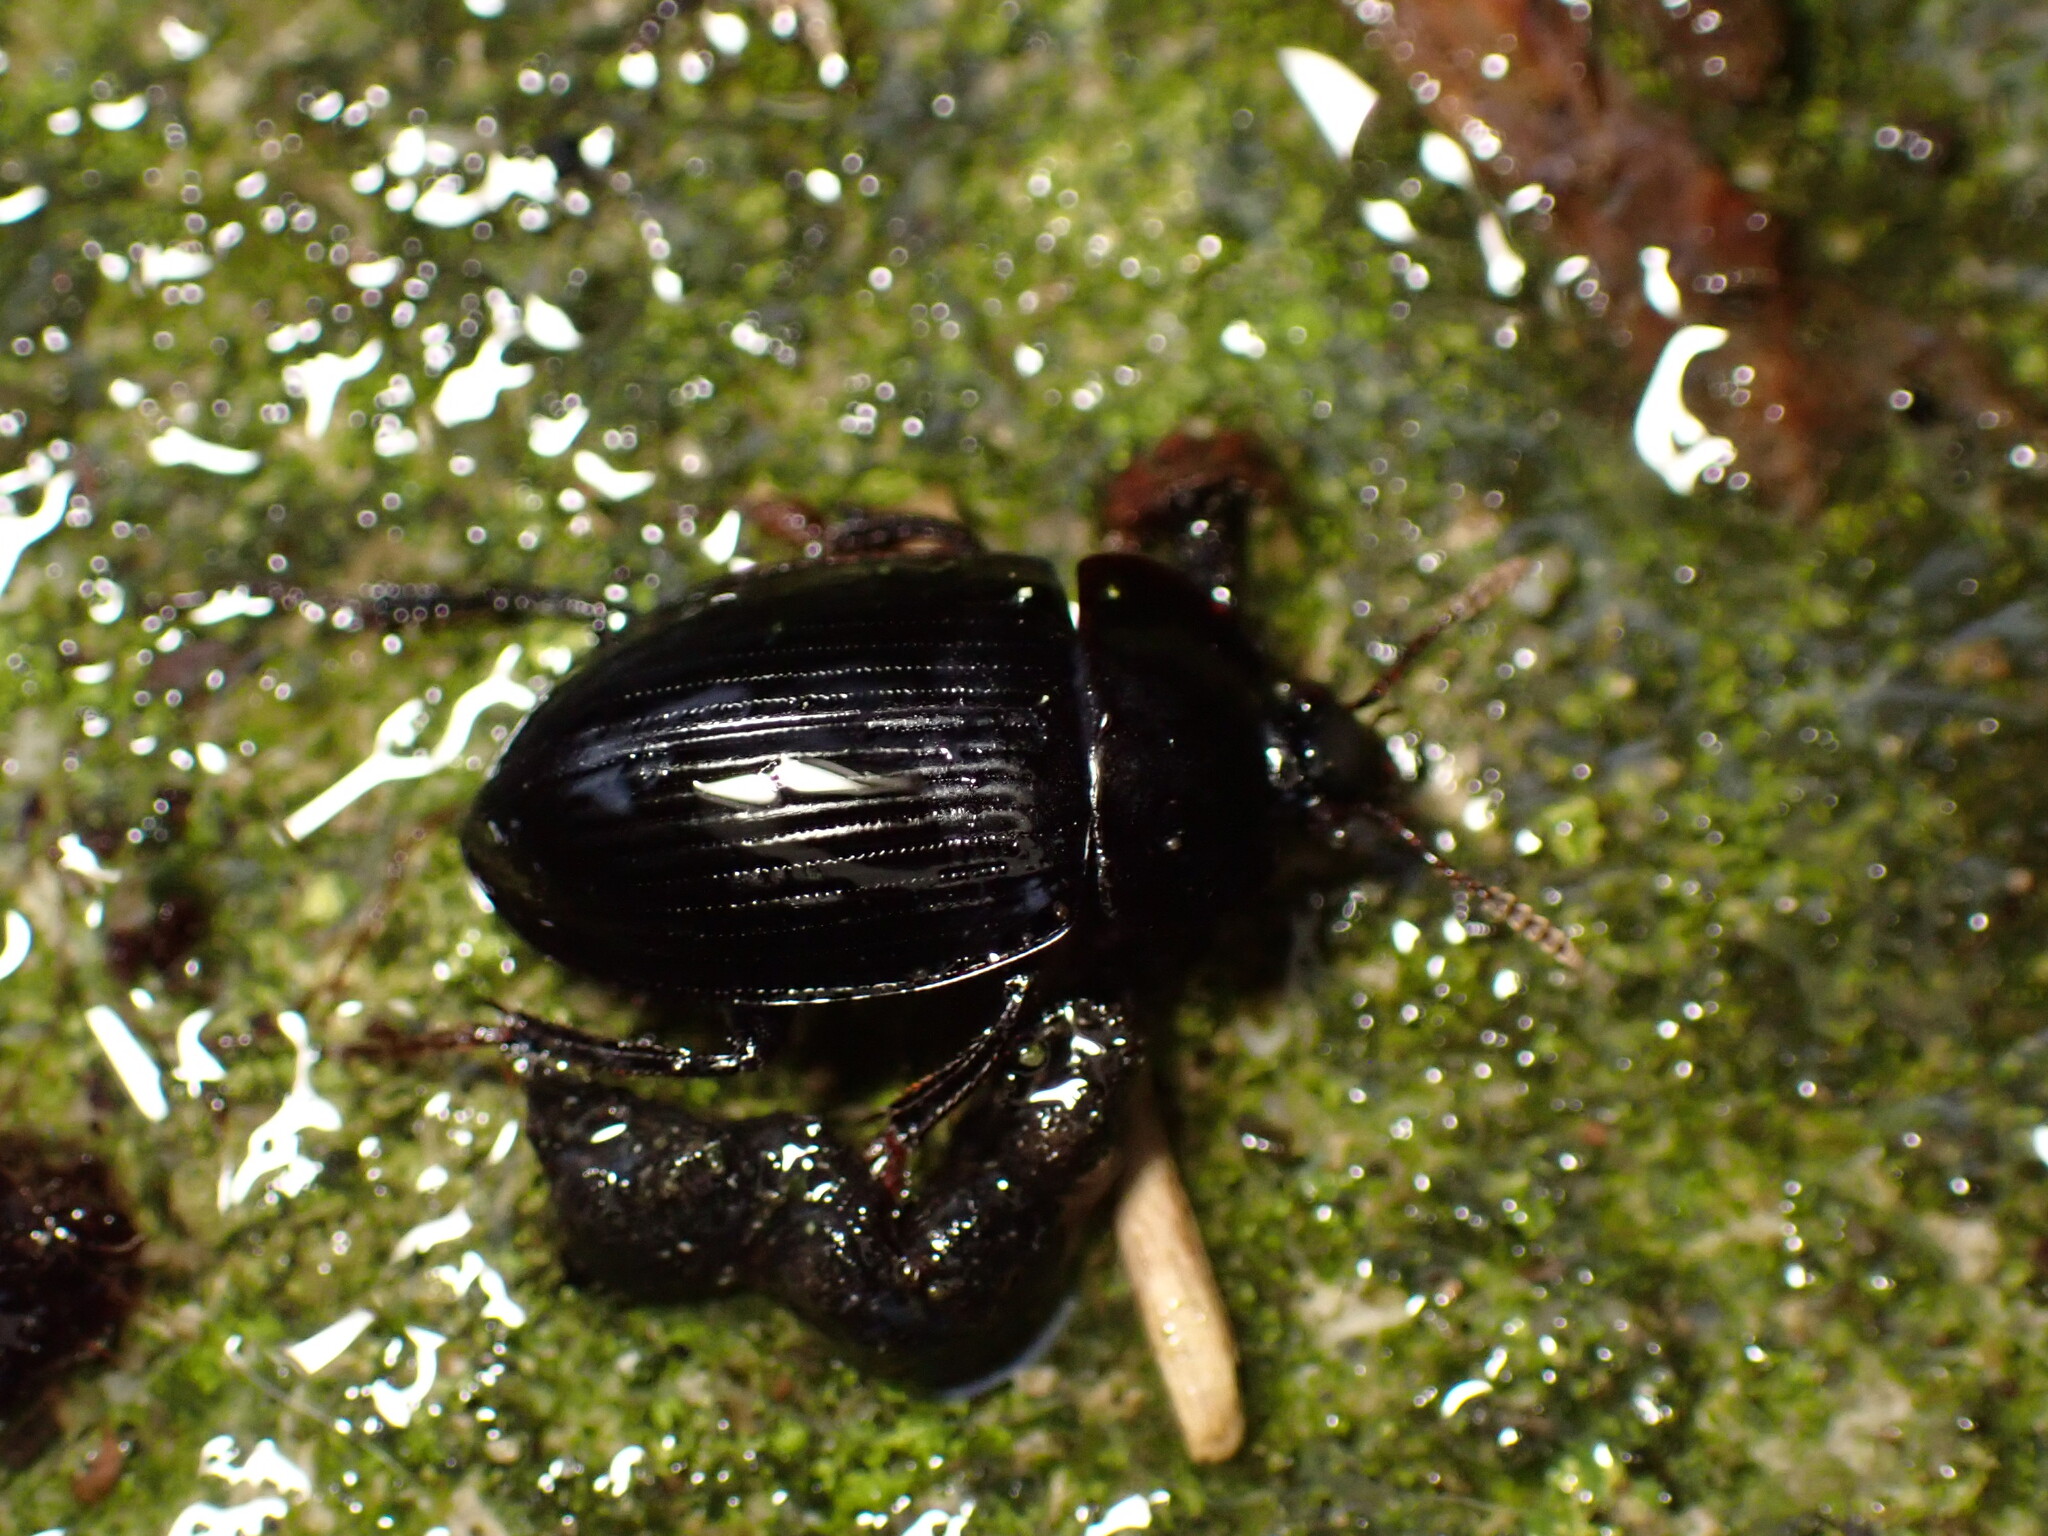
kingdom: Animalia
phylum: Arthropoda
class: Insecta
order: Coleoptera
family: Agyrtidae
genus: Necrophilus
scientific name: Necrophilus hydrophiloides
